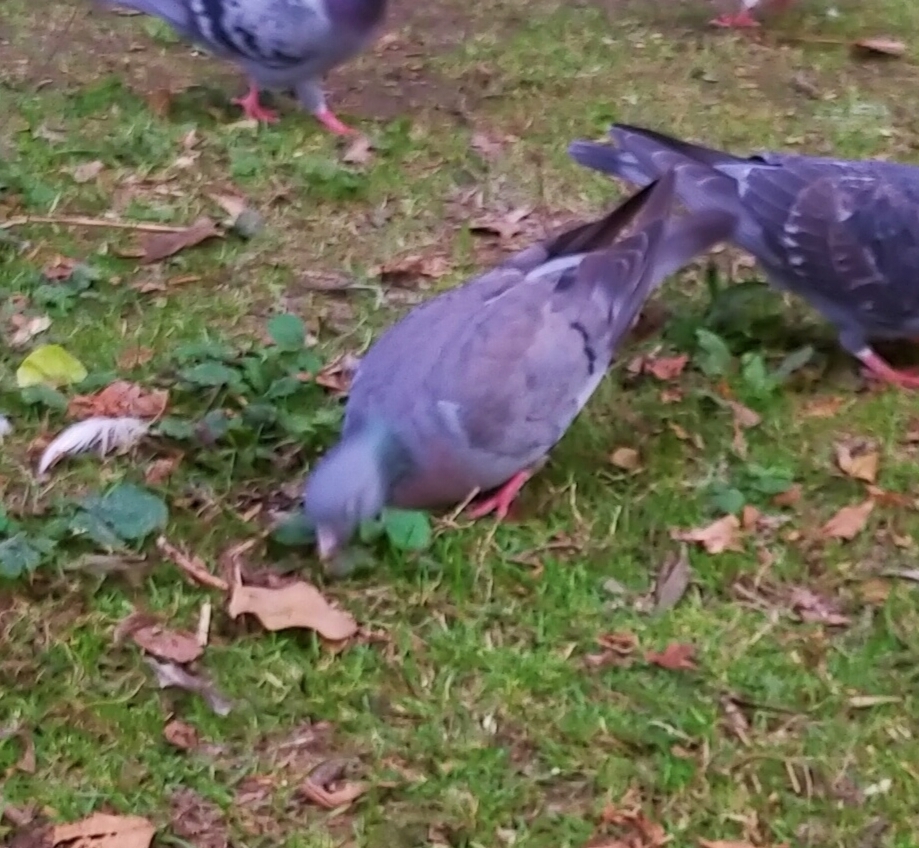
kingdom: Animalia
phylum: Chordata
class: Aves
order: Columbiformes
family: Columbidae
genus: Columba
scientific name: Columba oenas
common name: Stock dove
